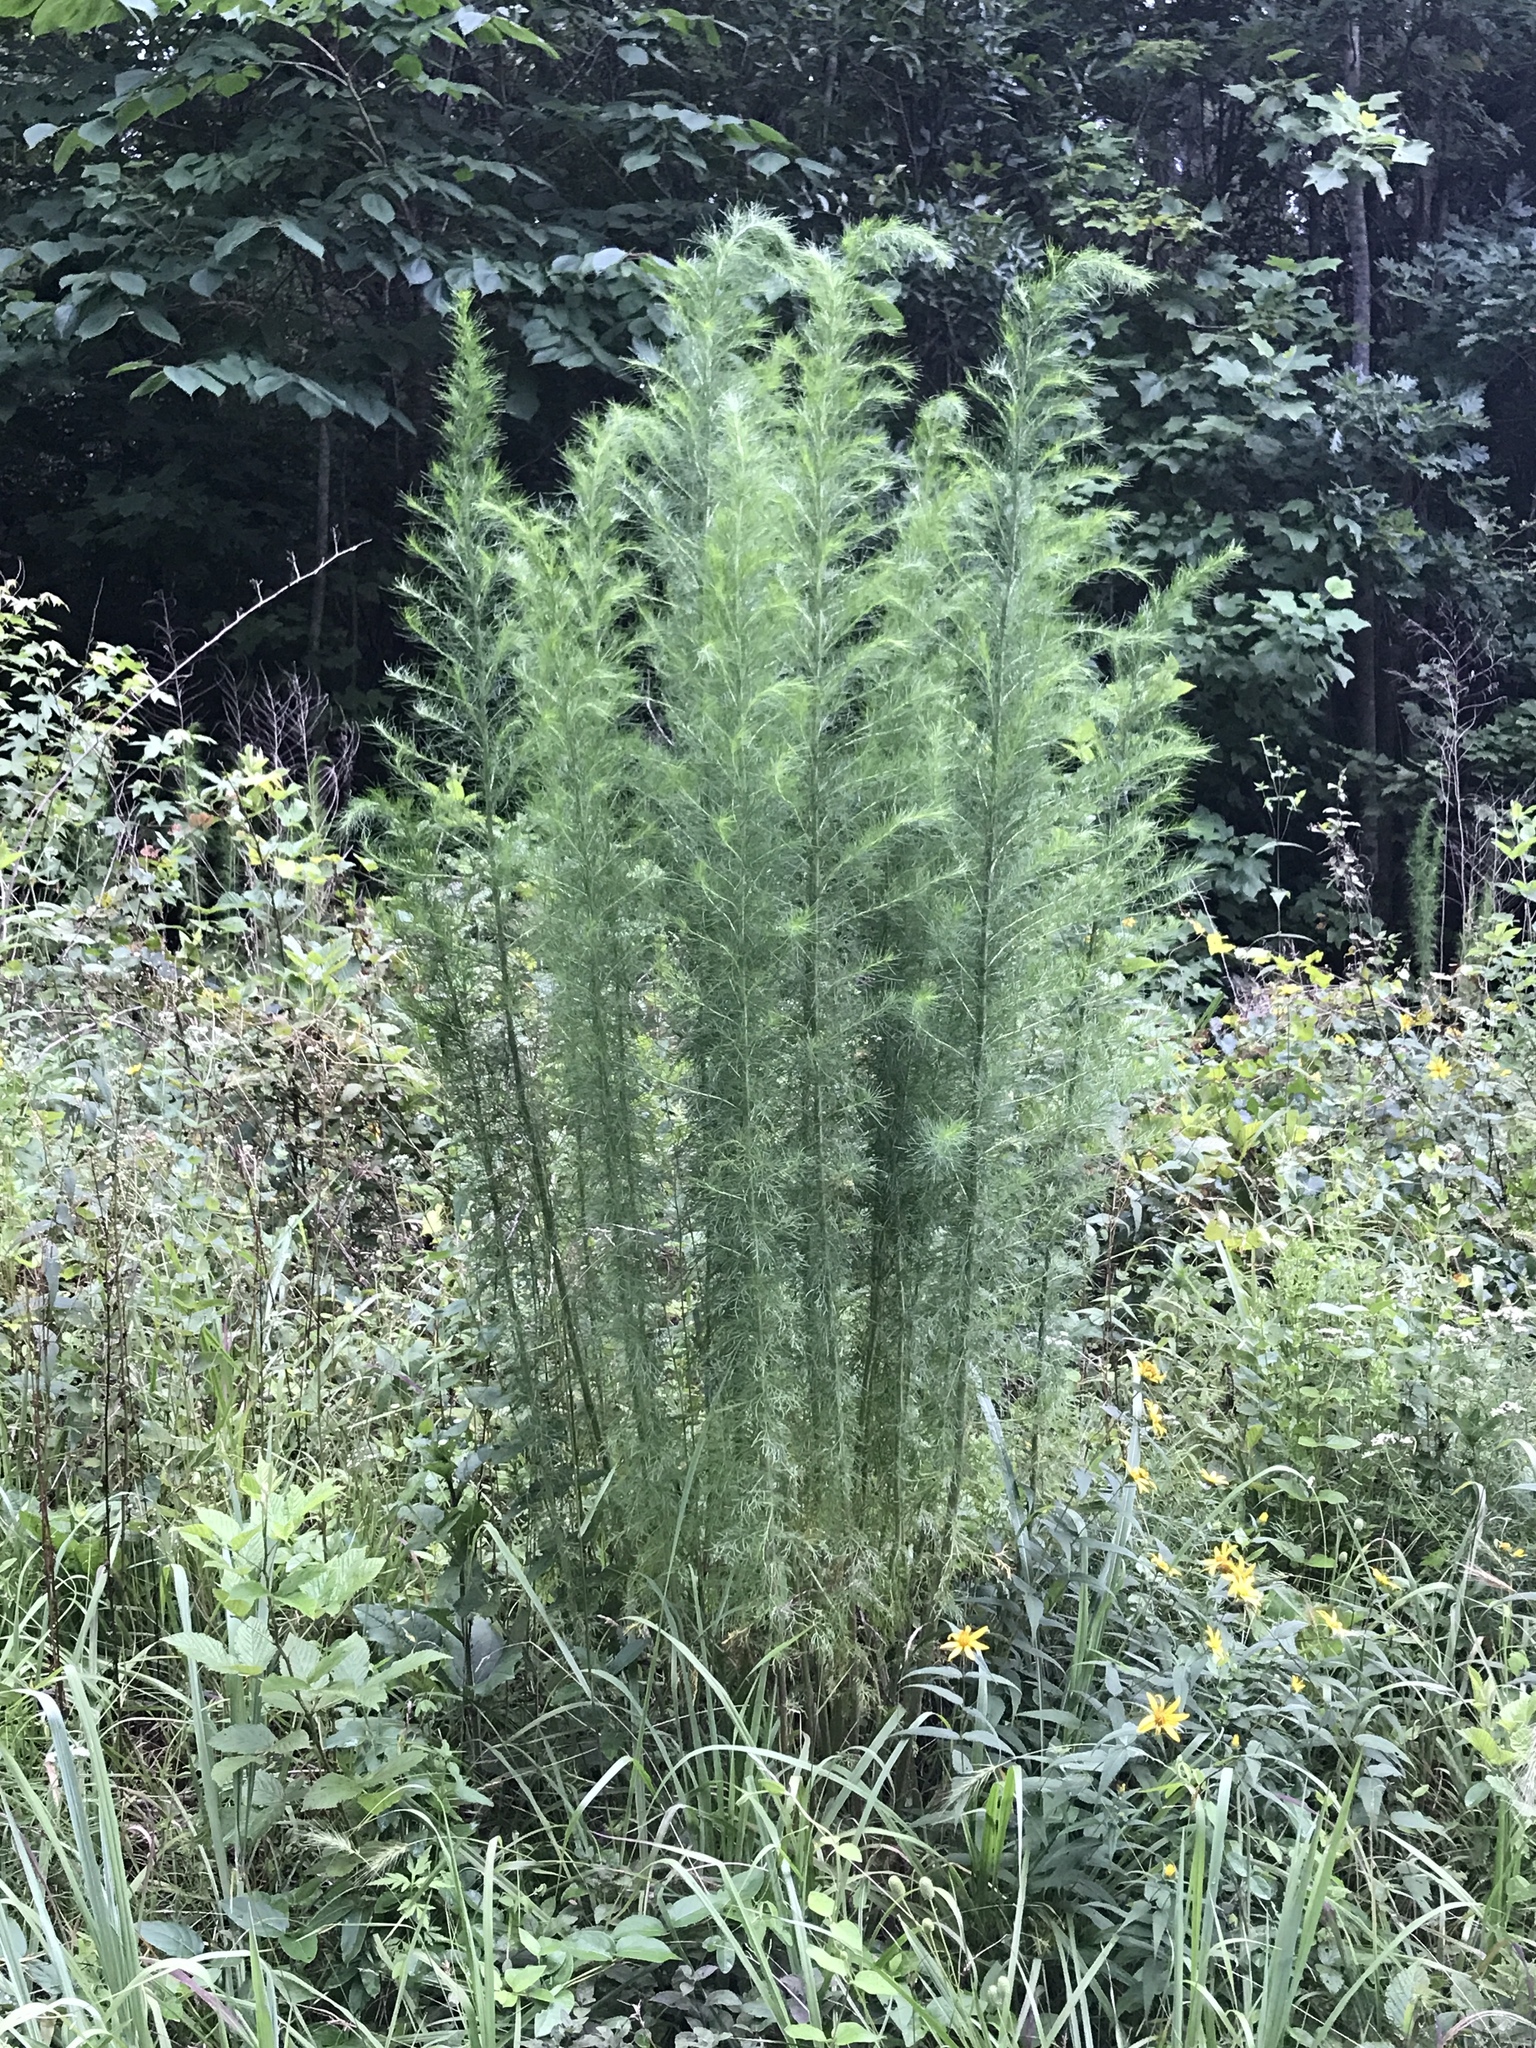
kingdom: Plantae
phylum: Tracheophyta
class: Magnoliopsida
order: Asterales
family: Asteraceae
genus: Eupatorium
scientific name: Eupatorium capillifolium
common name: Dog-fennel
